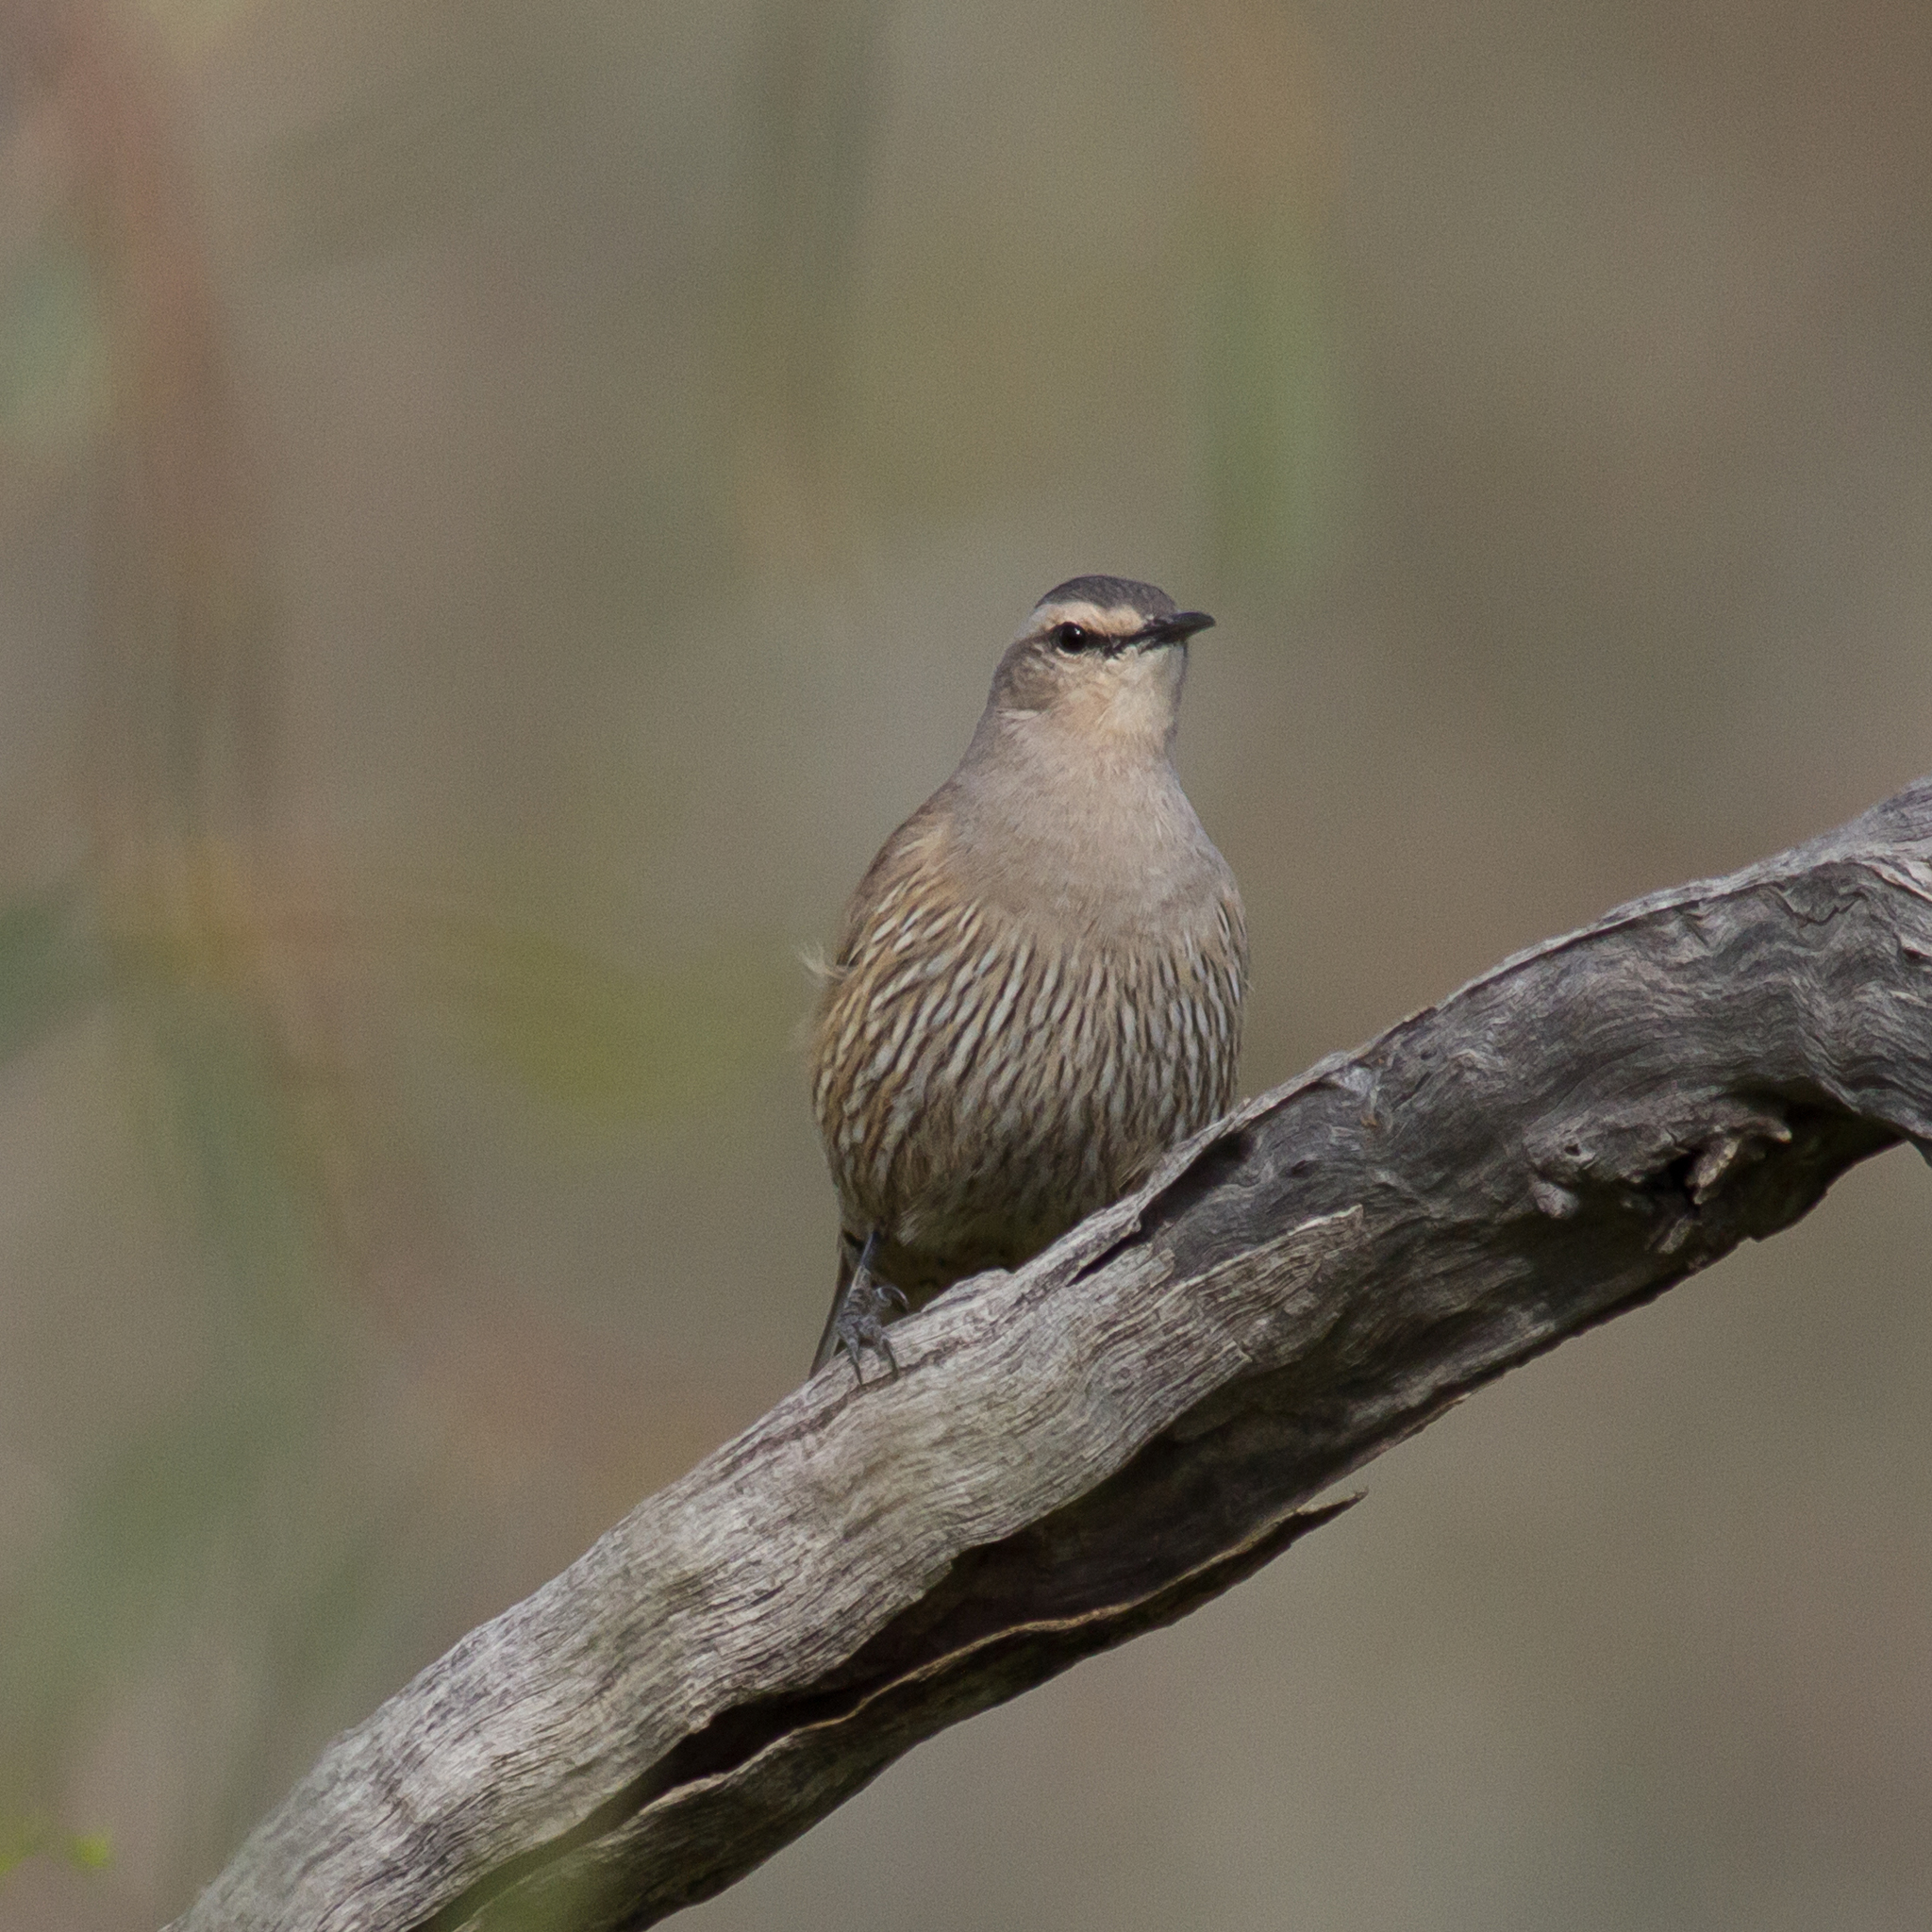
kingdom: Animalia
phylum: Chordata
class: Aves
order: Passeriformes
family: Climacteridae
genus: Climacteris
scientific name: Climacteris picumnus
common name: Brown treecreeper
